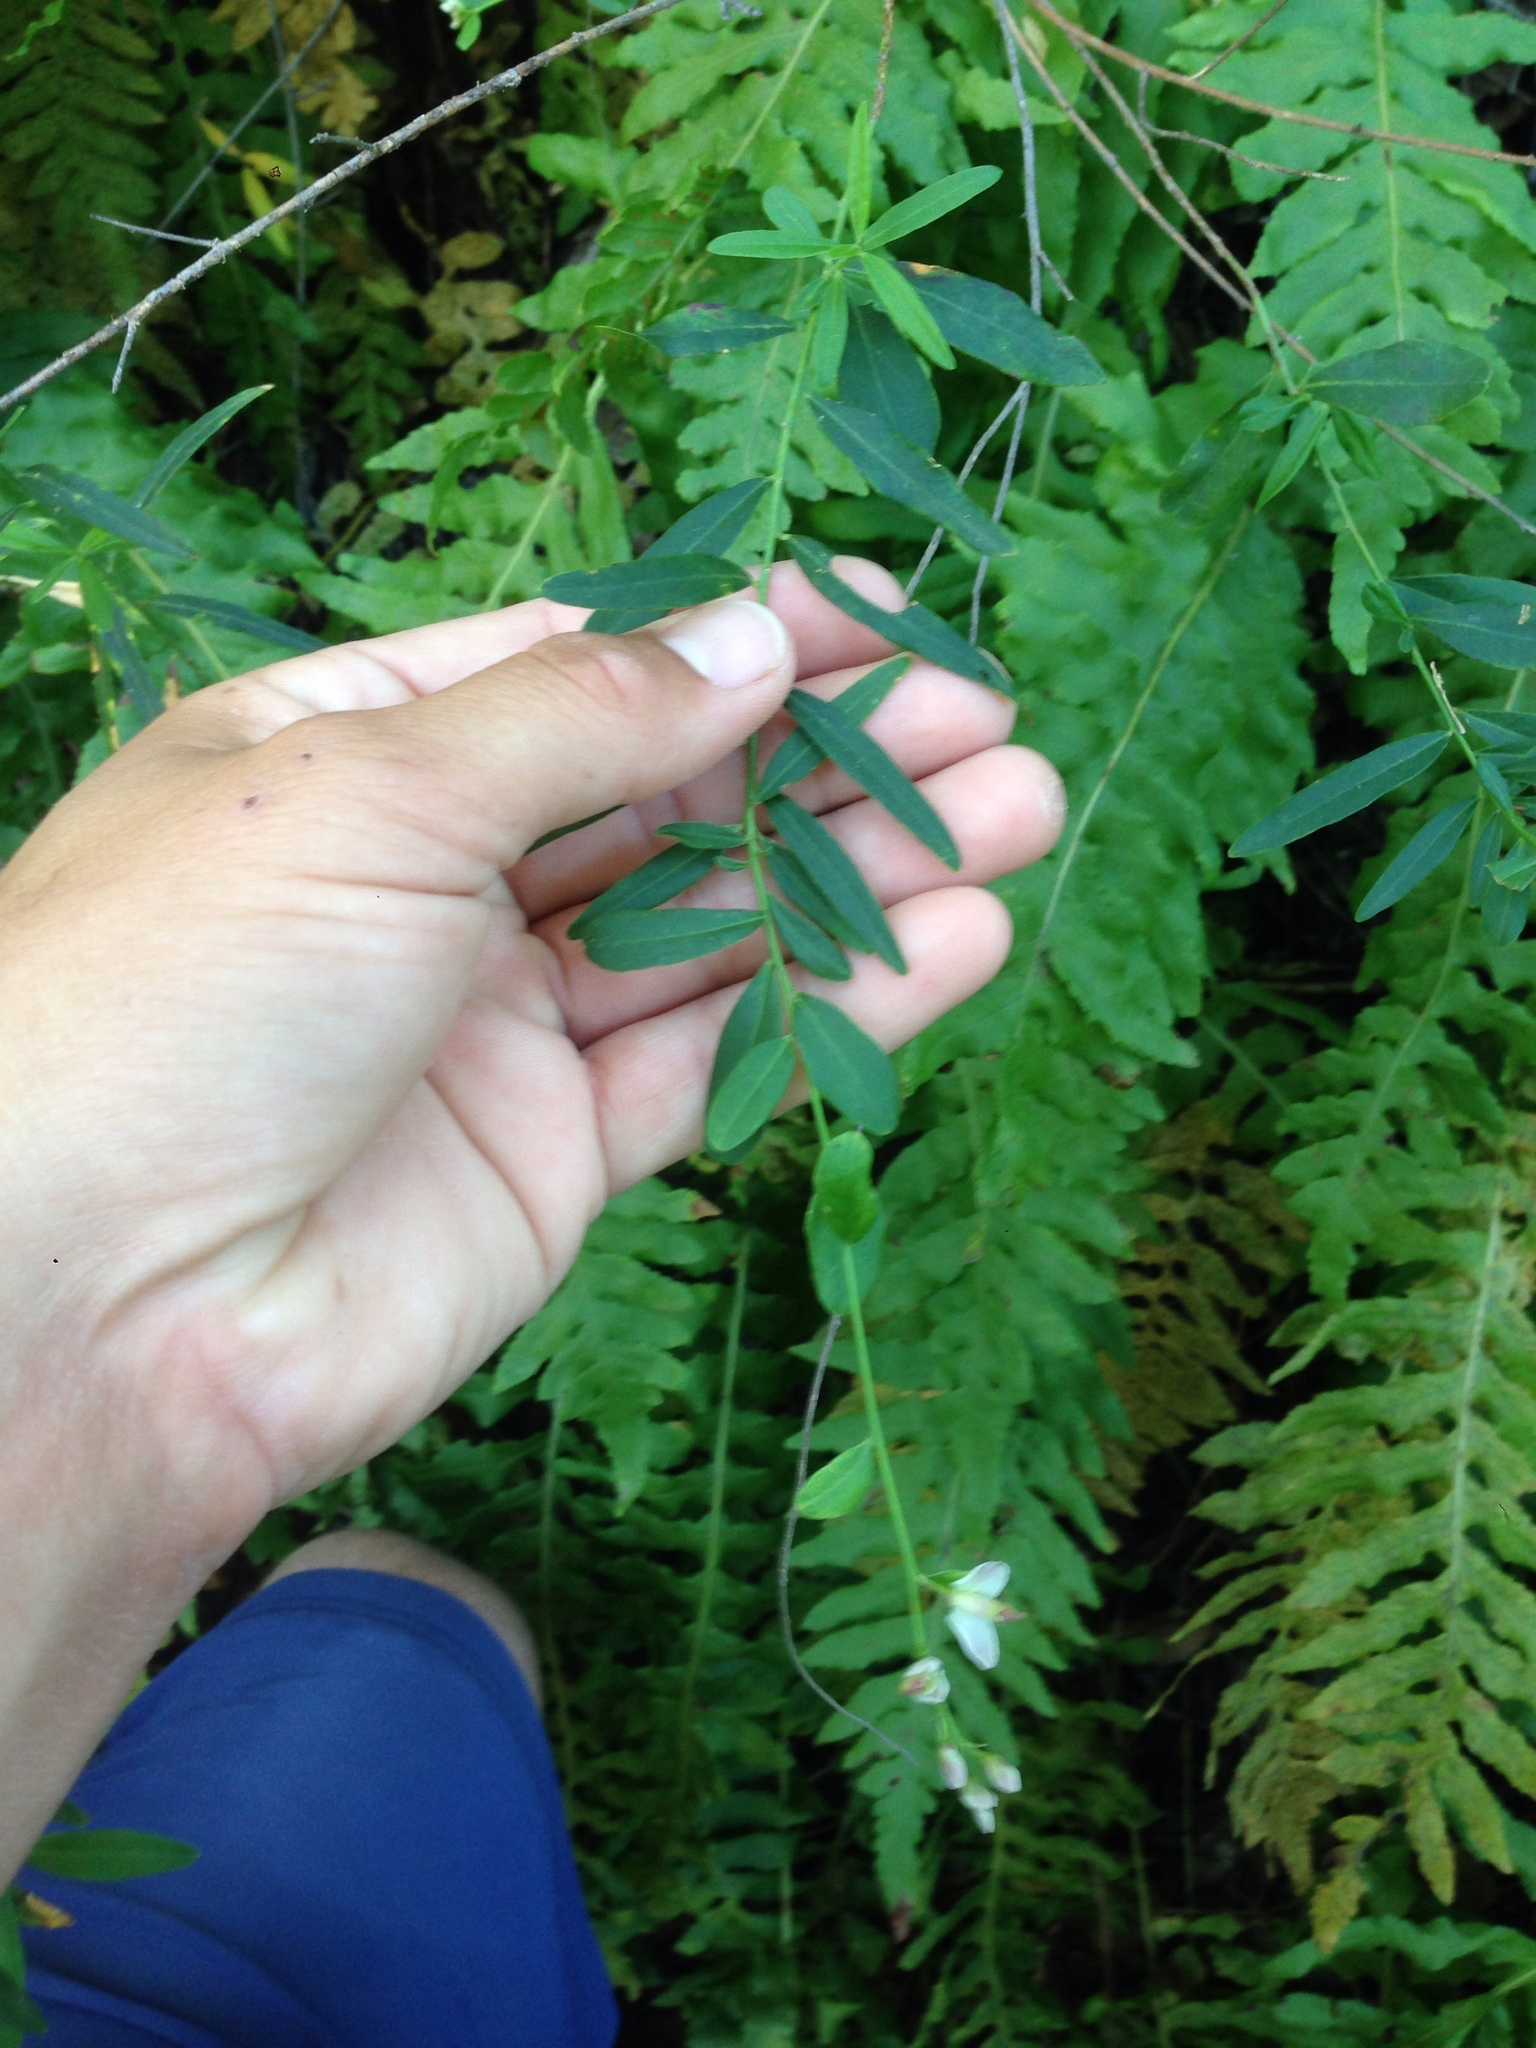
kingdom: Plantae
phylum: Tracheophyta
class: Magnoliopsida
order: Fabales
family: Polygalaceae
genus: Rhinotropis
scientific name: Rhinotropis cornuta
